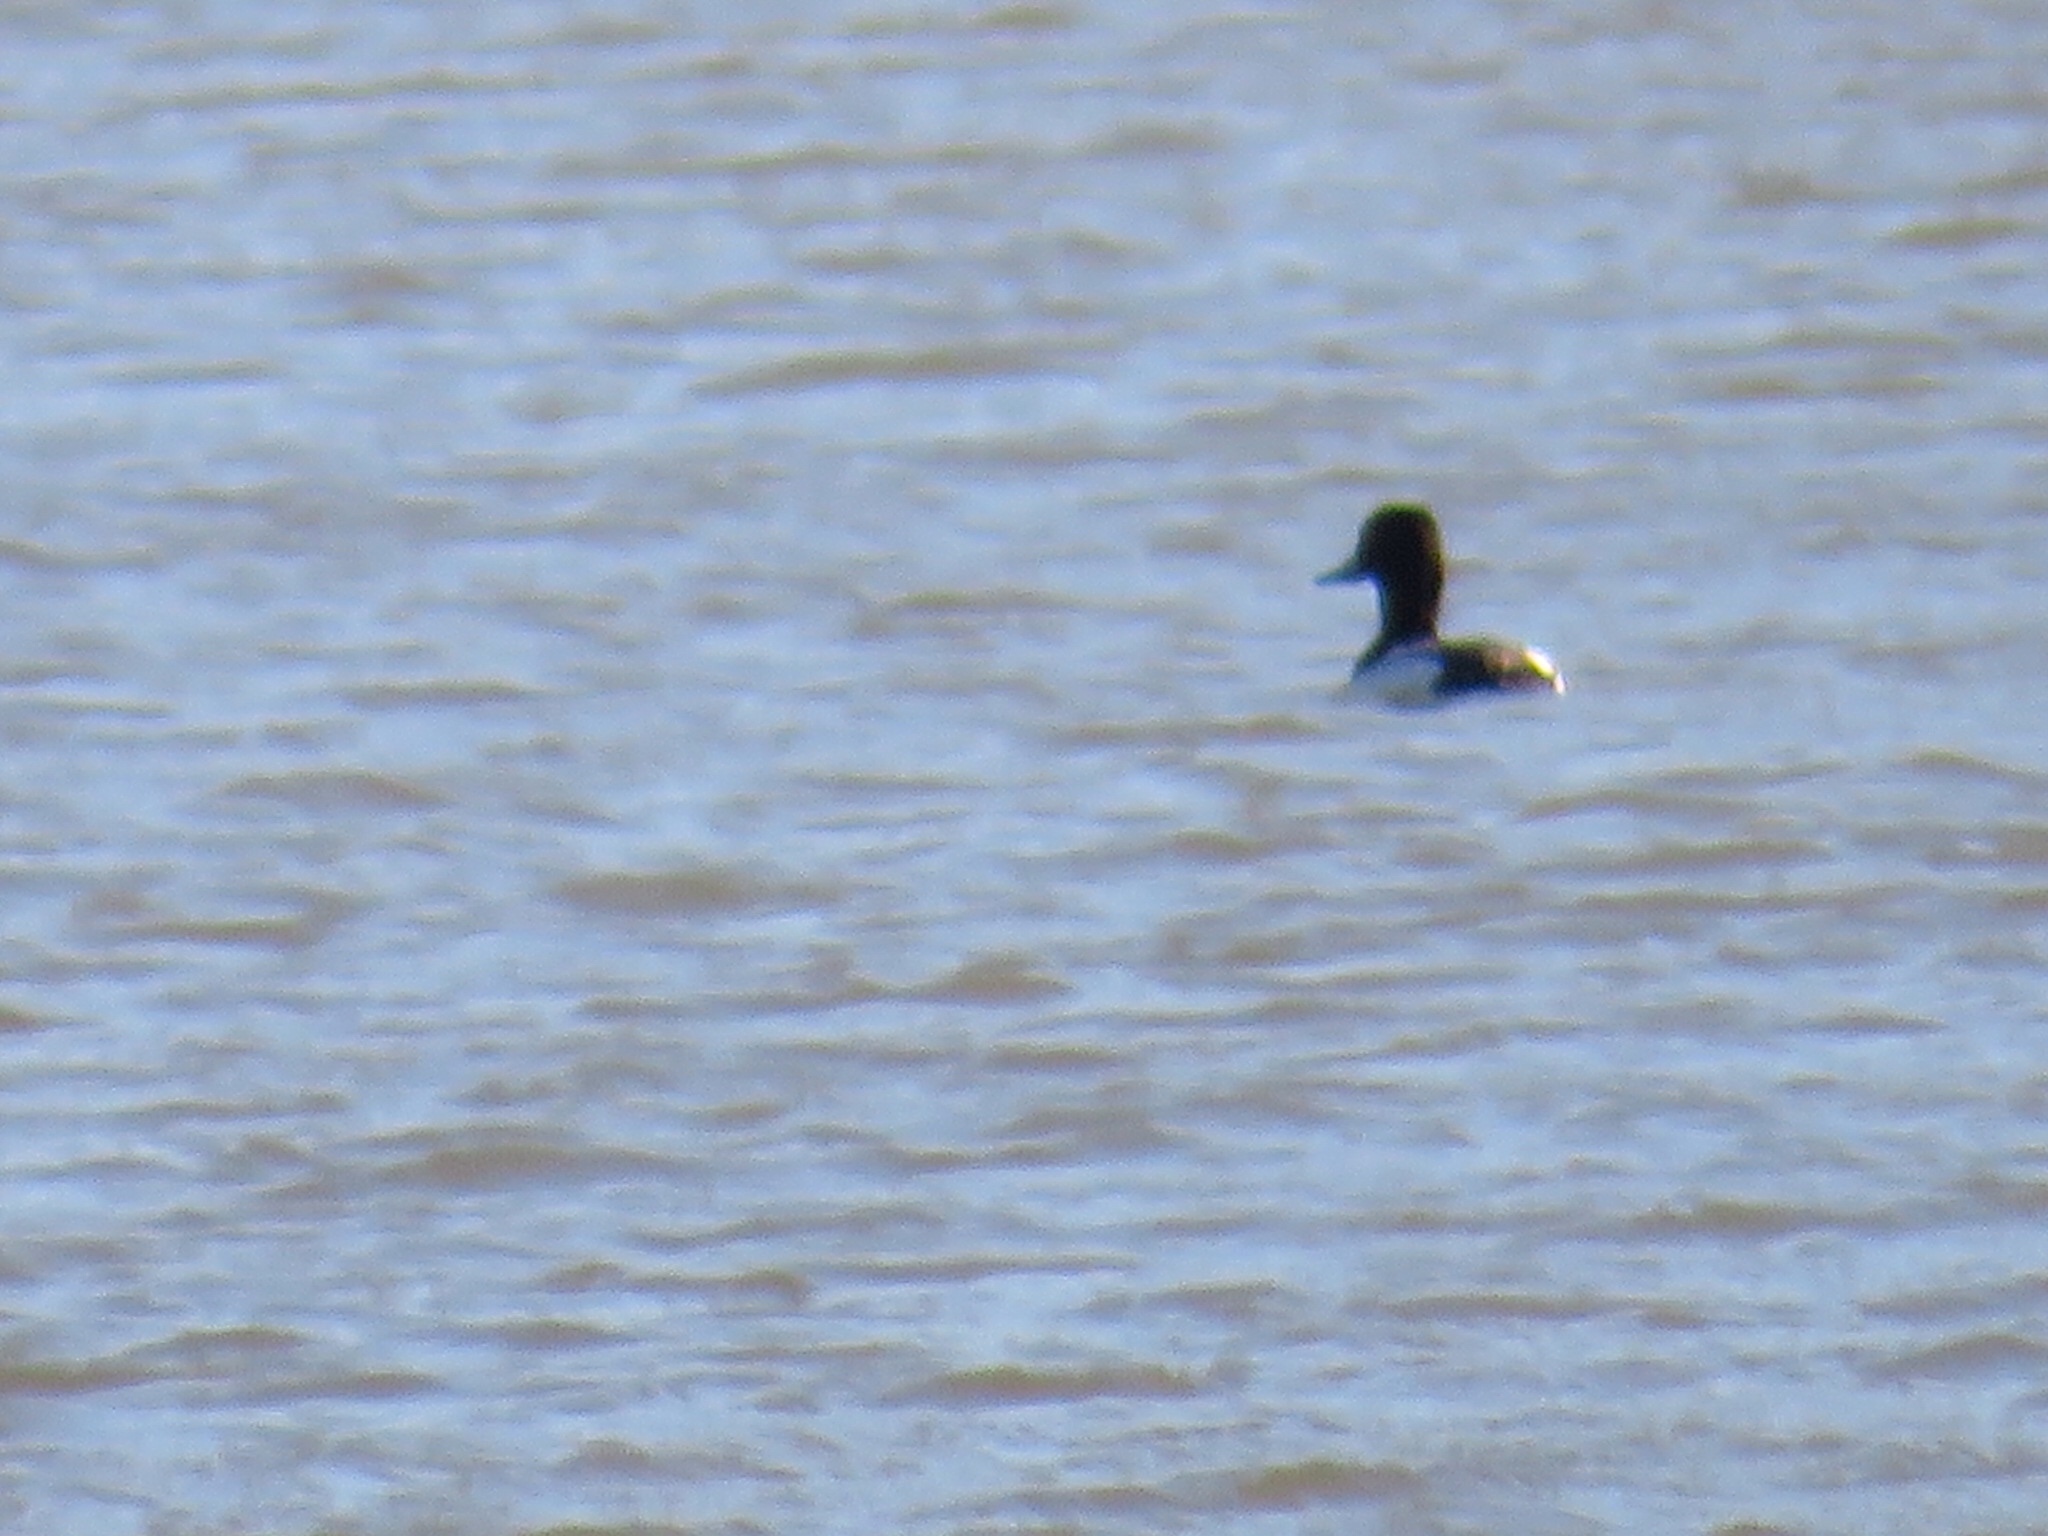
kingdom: Animalia
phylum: Chordata
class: Aves
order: Anseriformes
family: Anatidae
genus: Aythya
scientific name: Aythya
